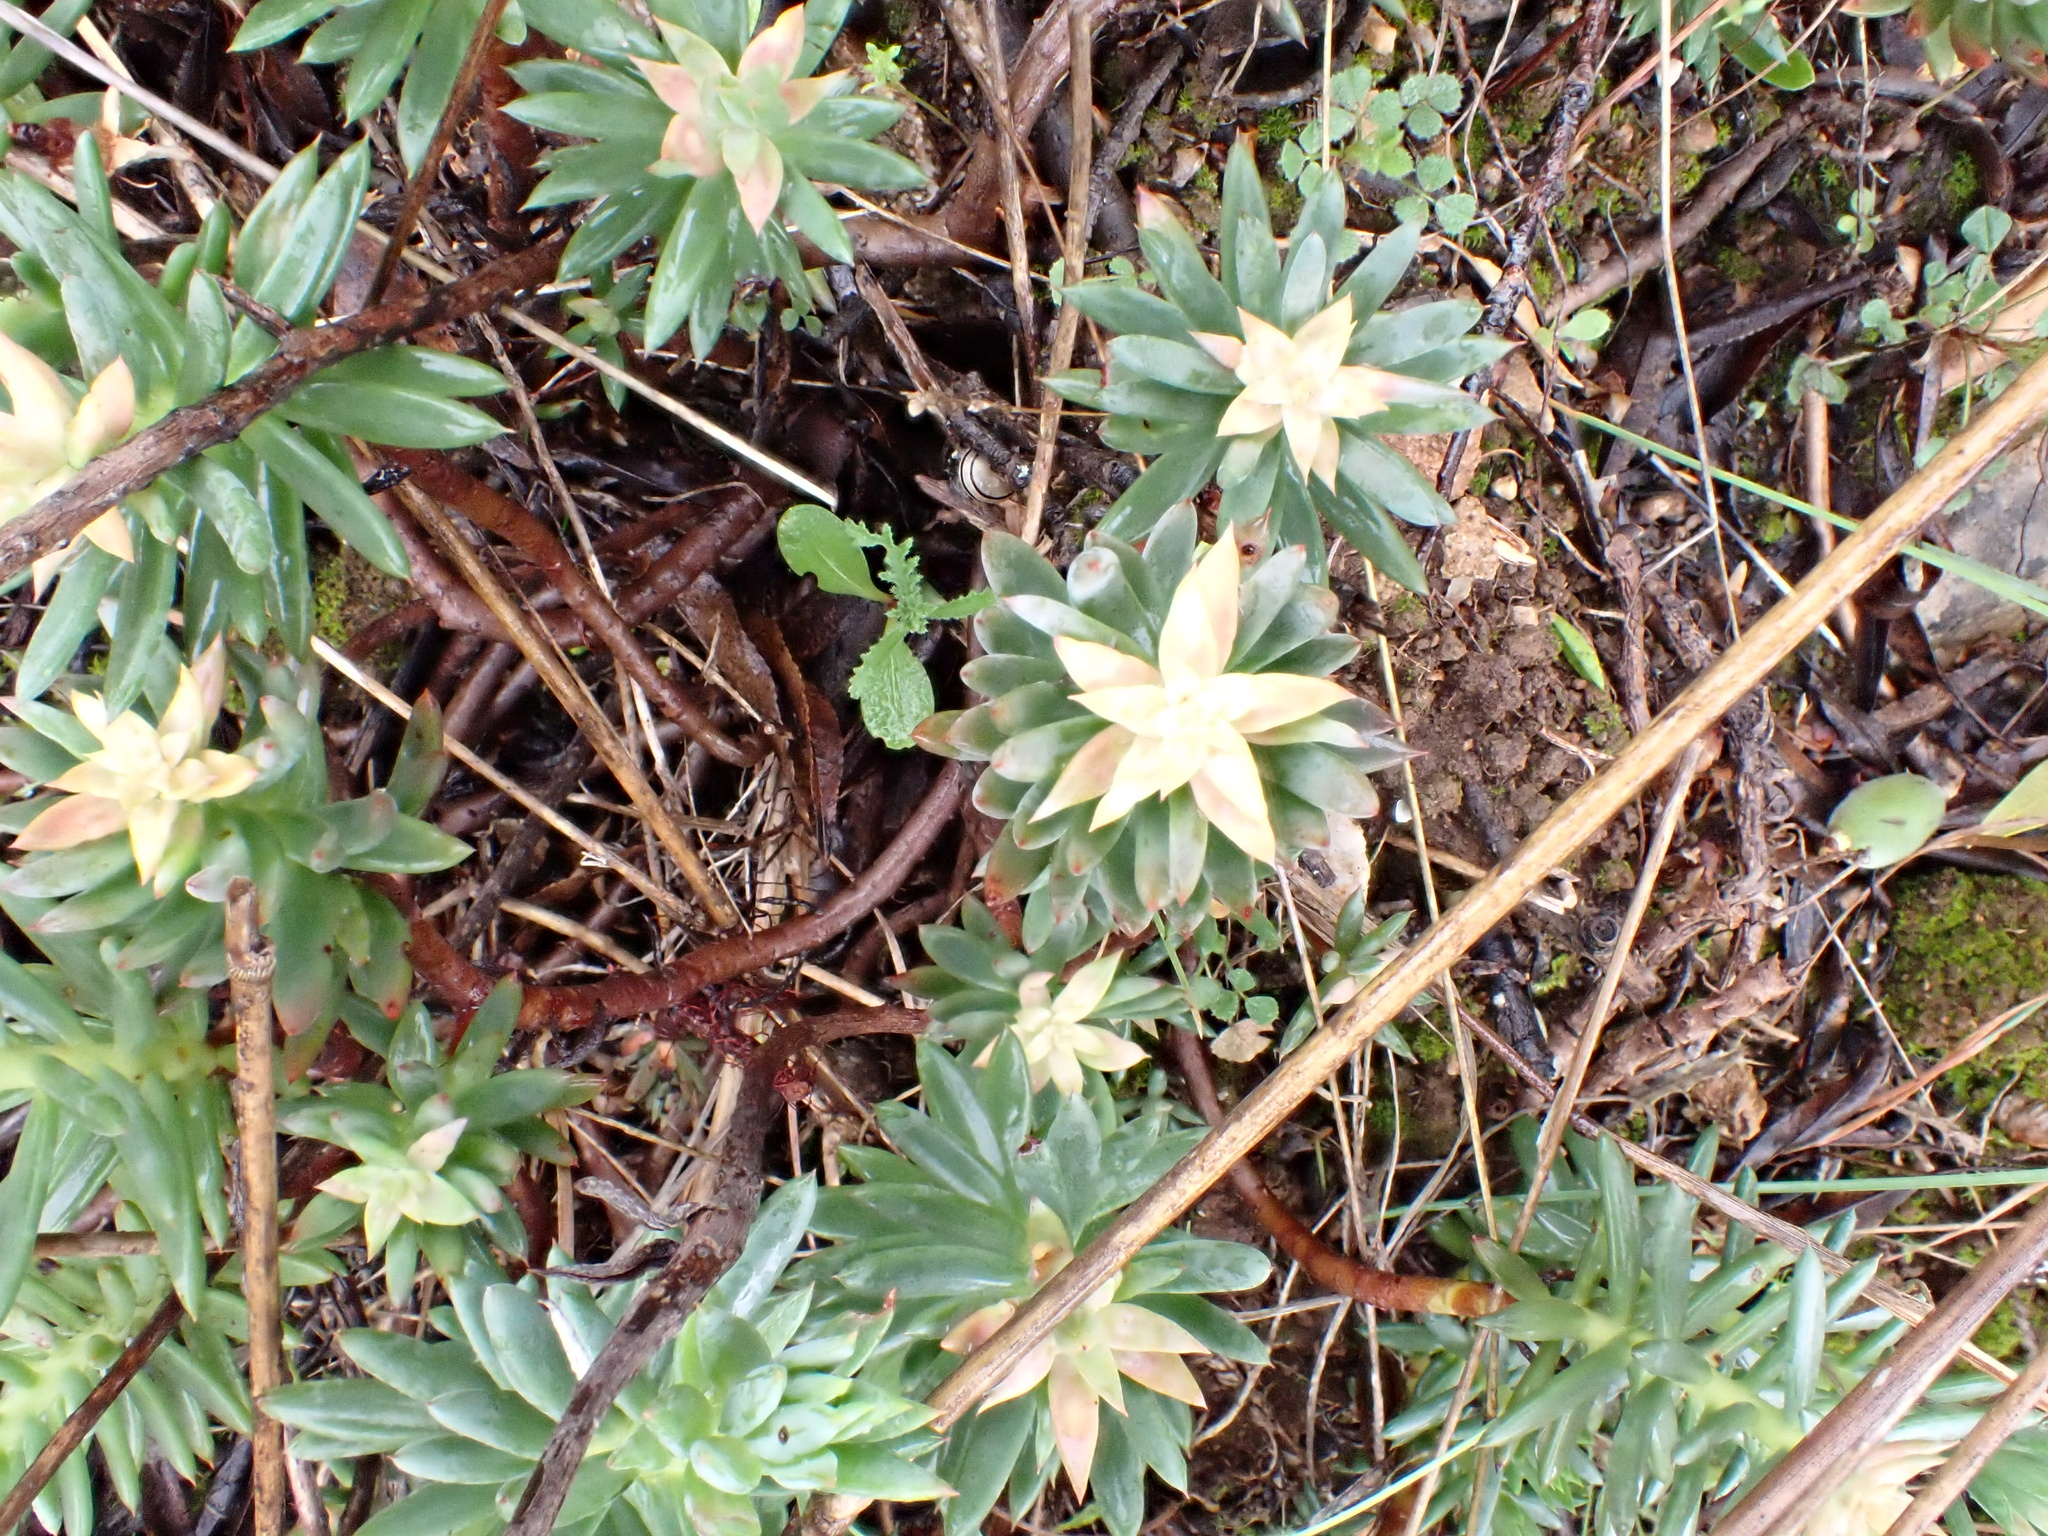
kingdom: Plantae
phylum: Tracheophyta
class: Magnoliopsida
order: Saxifragales
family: Crassulaceae
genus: Petrosedum
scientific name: Petrosedum sediforme
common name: Pale stonecrop
